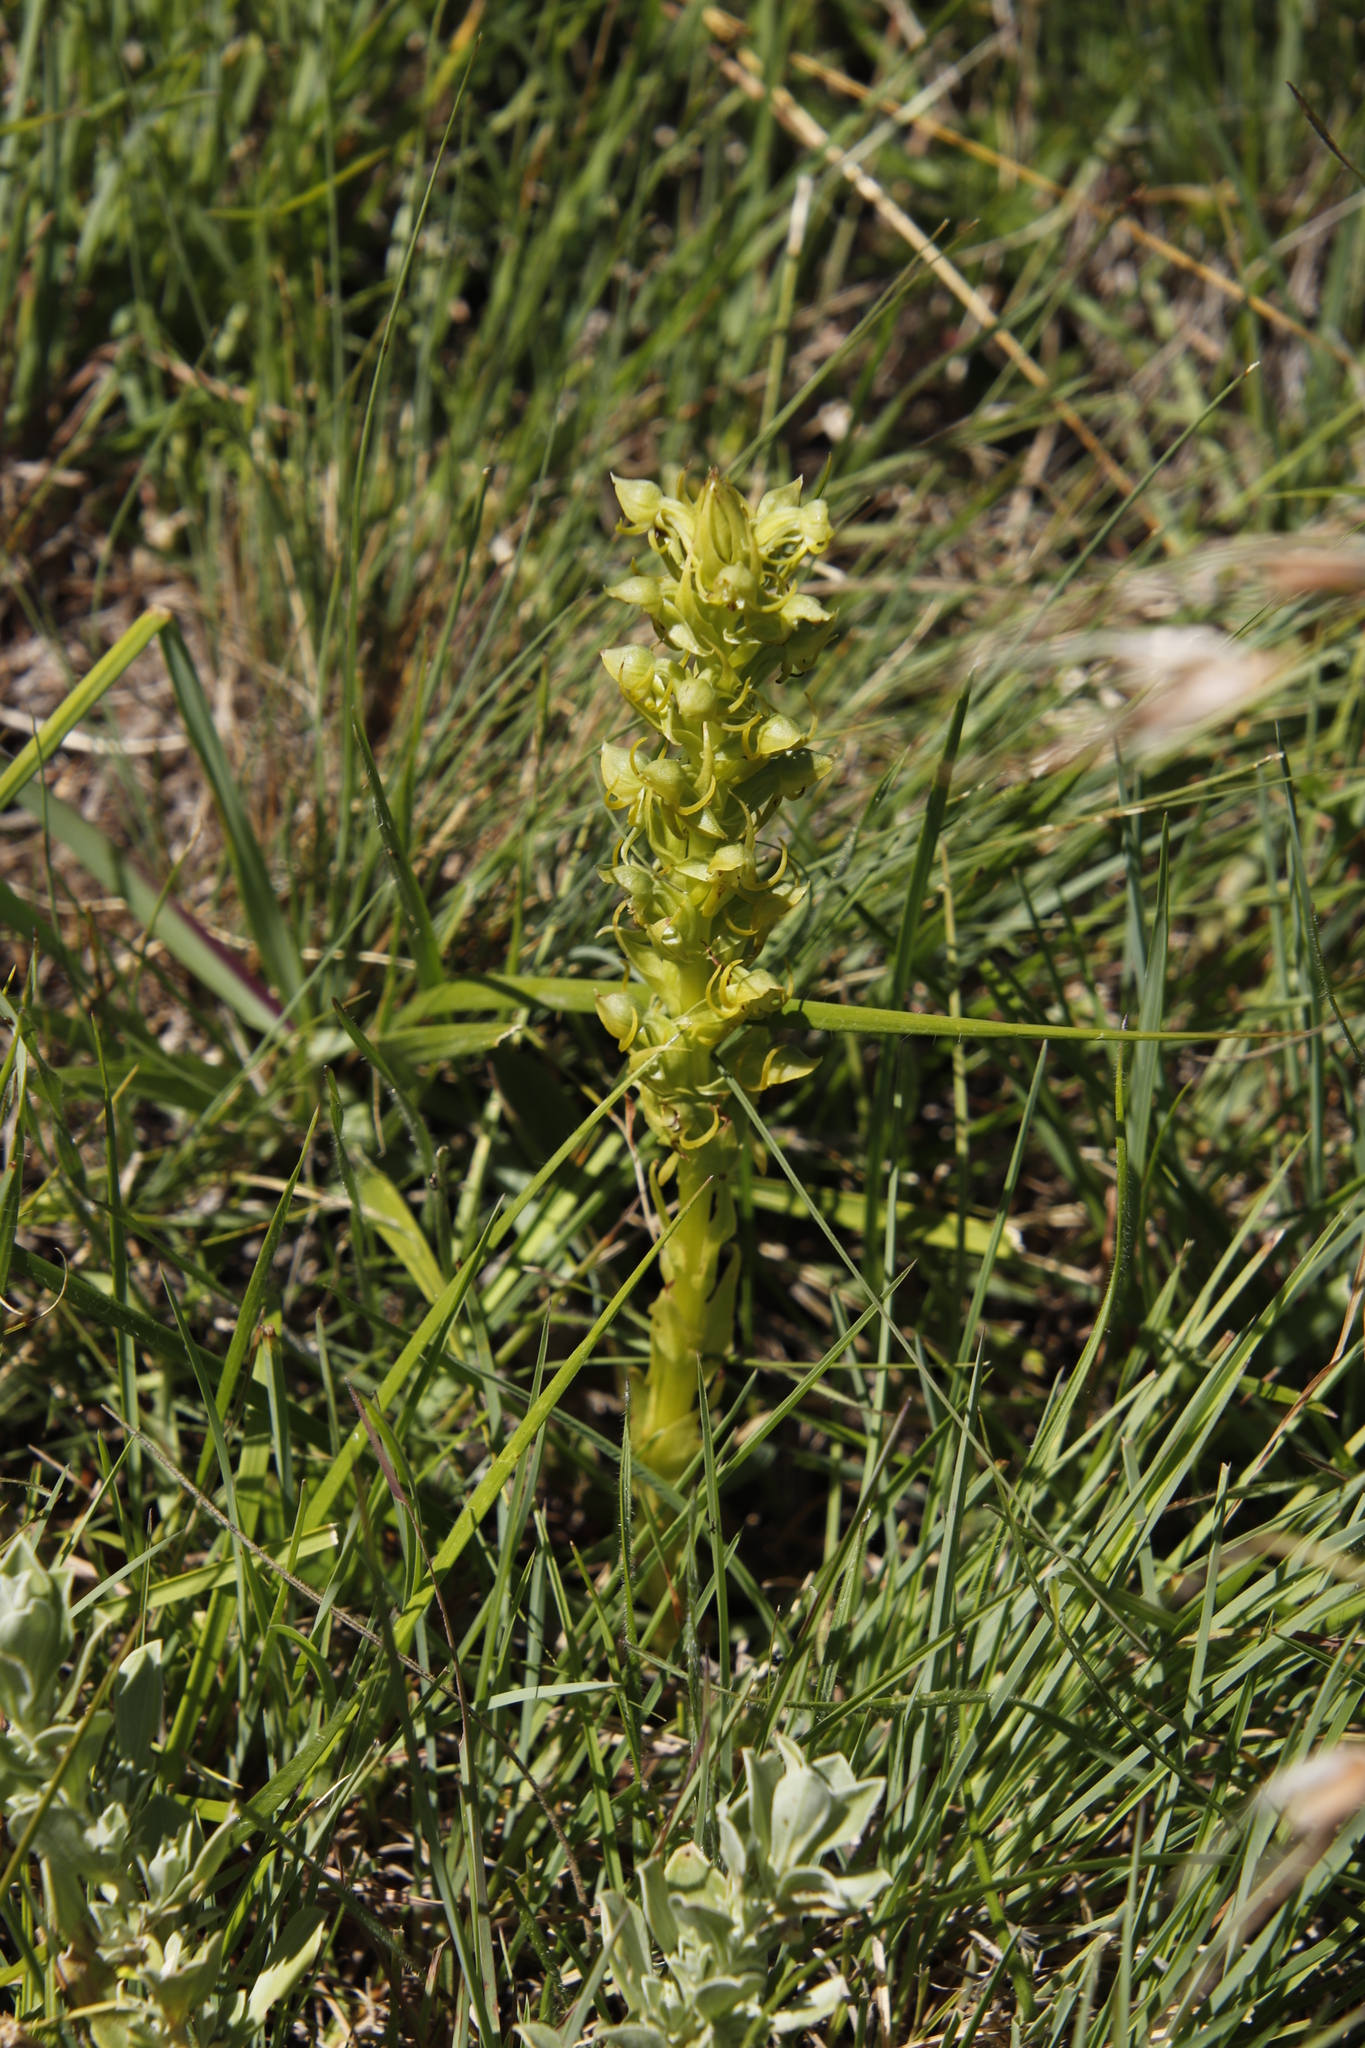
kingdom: Plantae
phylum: Tracheophyta
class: Liliopsida
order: Asparagales
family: Orchidaceae
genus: Habenaria
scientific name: Habenaria lithophila
